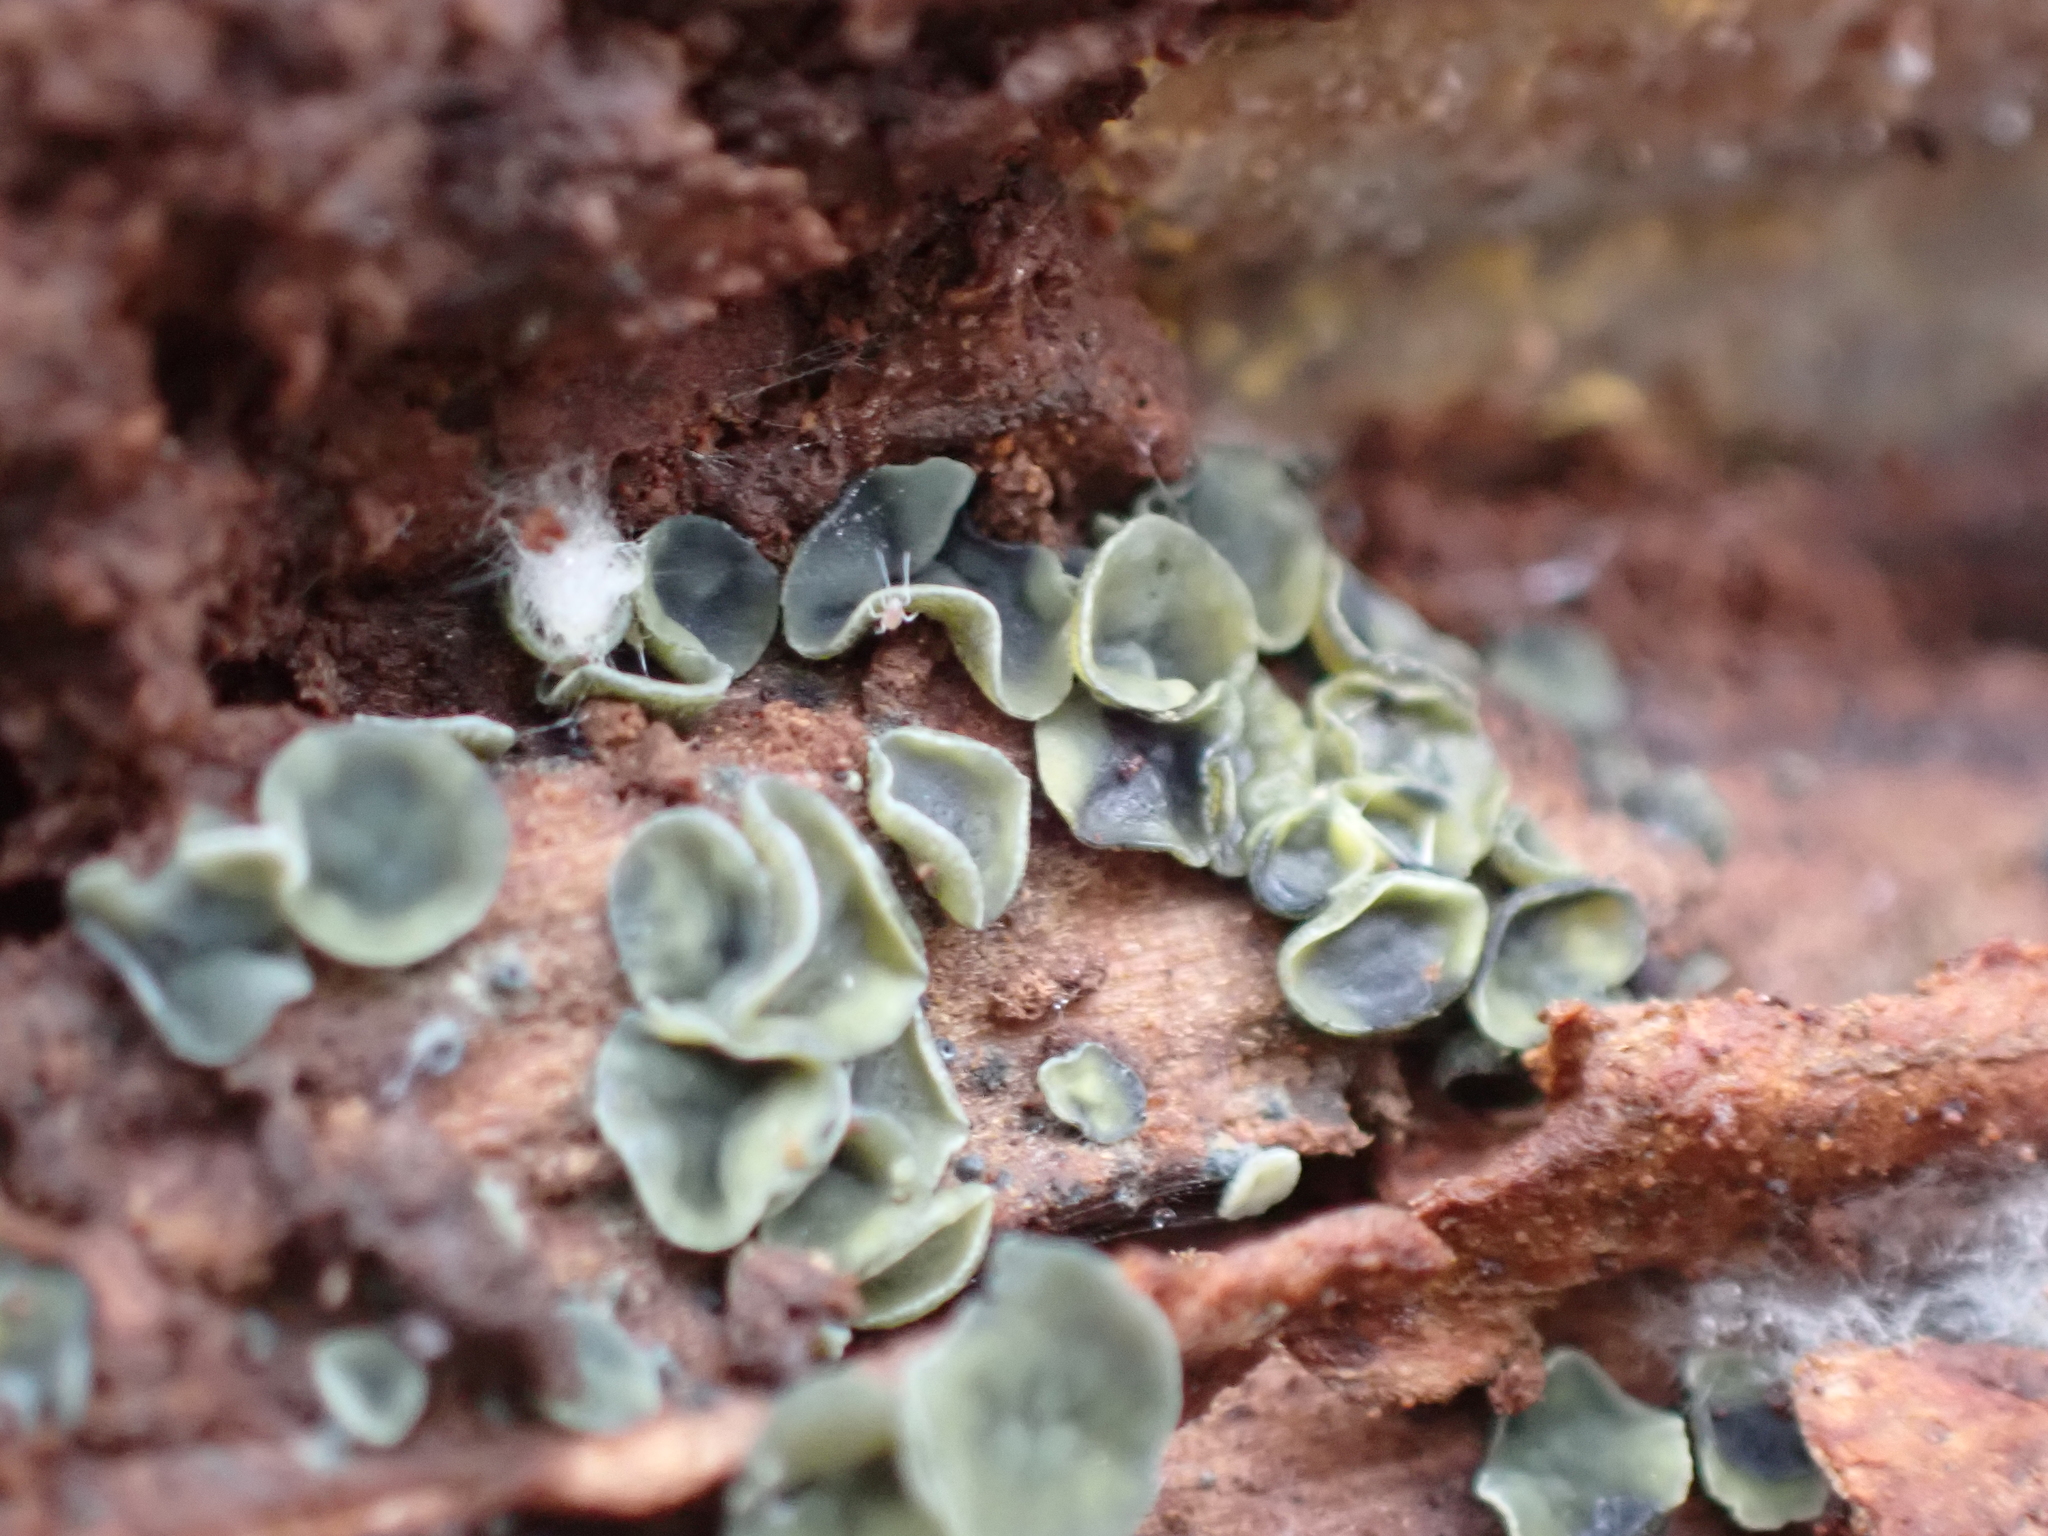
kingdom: Fungi
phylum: Ascomycota
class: Leotiomycetes
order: Helotiales
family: Chlorospleniaceae
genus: Chlorosplenium
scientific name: Chlorosplenium chlora
